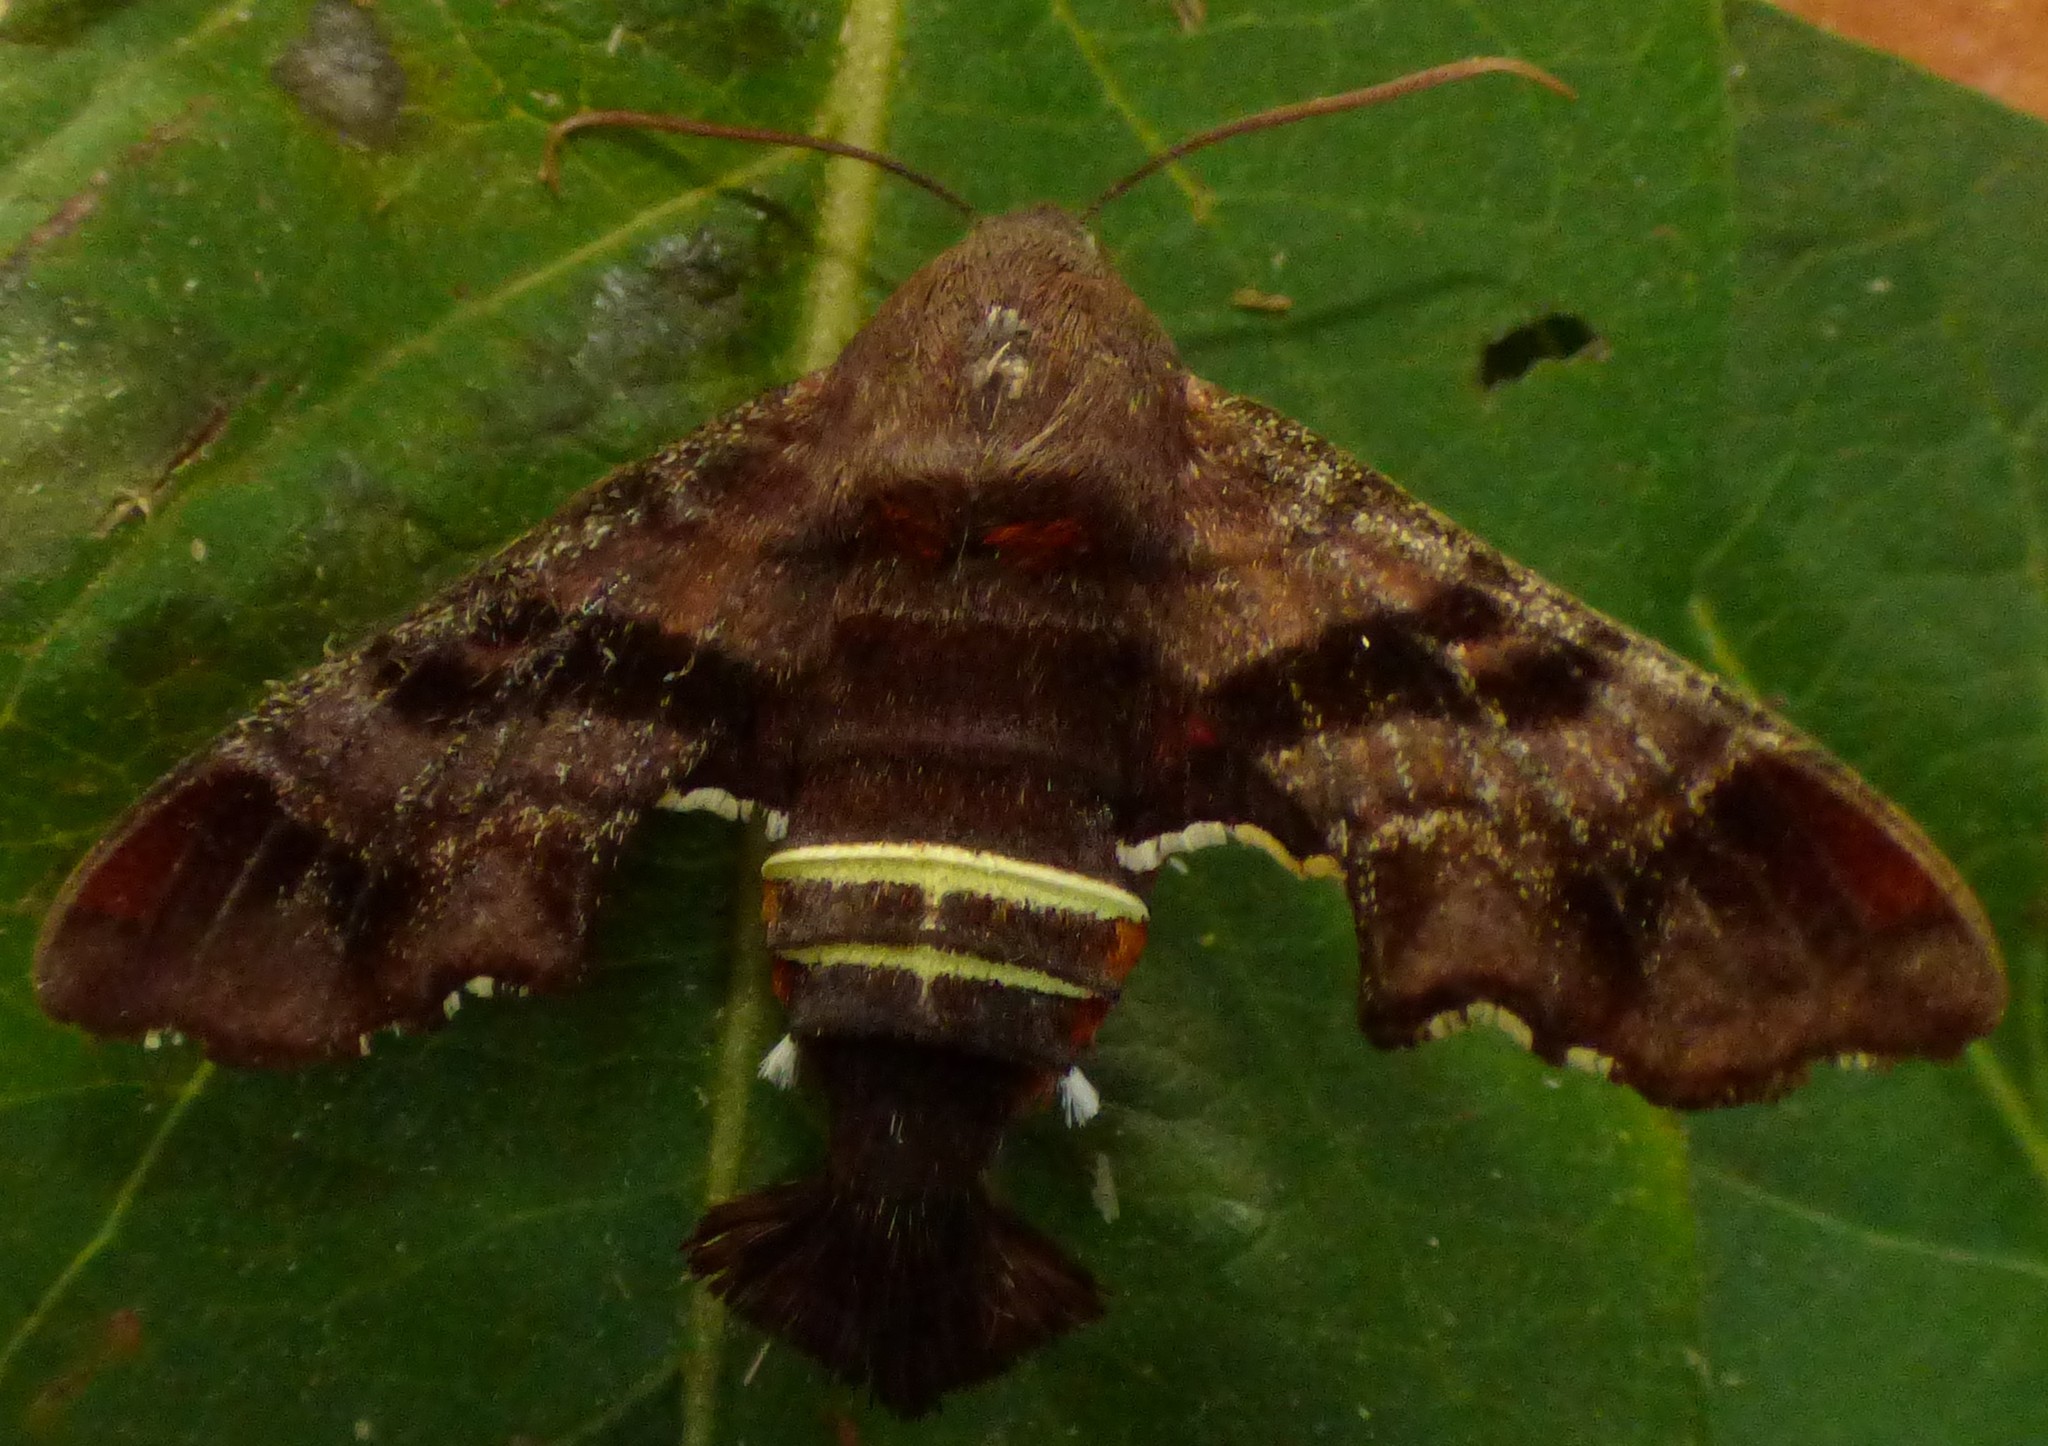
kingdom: Animalia
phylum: Arthropoda
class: Insecta
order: Lepidoptera
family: Sphingidae
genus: Amphion
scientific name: Amphion floridensis
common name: Nessus sphinx
